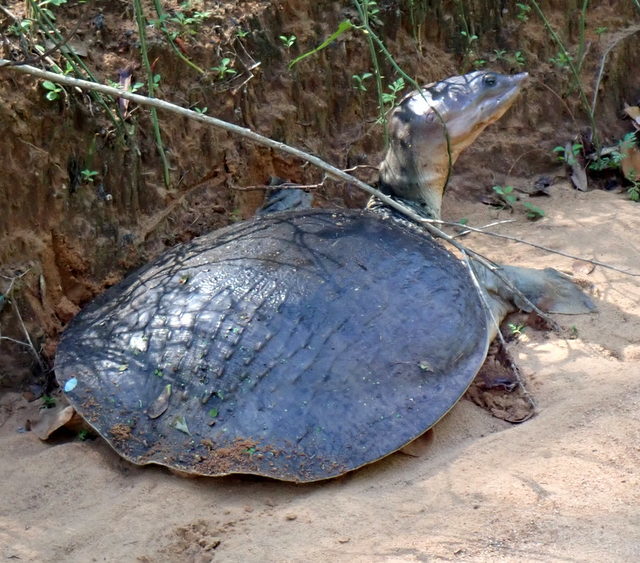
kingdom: Animalia
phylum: Chordata
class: Testudines
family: Trionychidae
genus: Apalone
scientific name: Apalone ferox
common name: Florida softshell turtle
